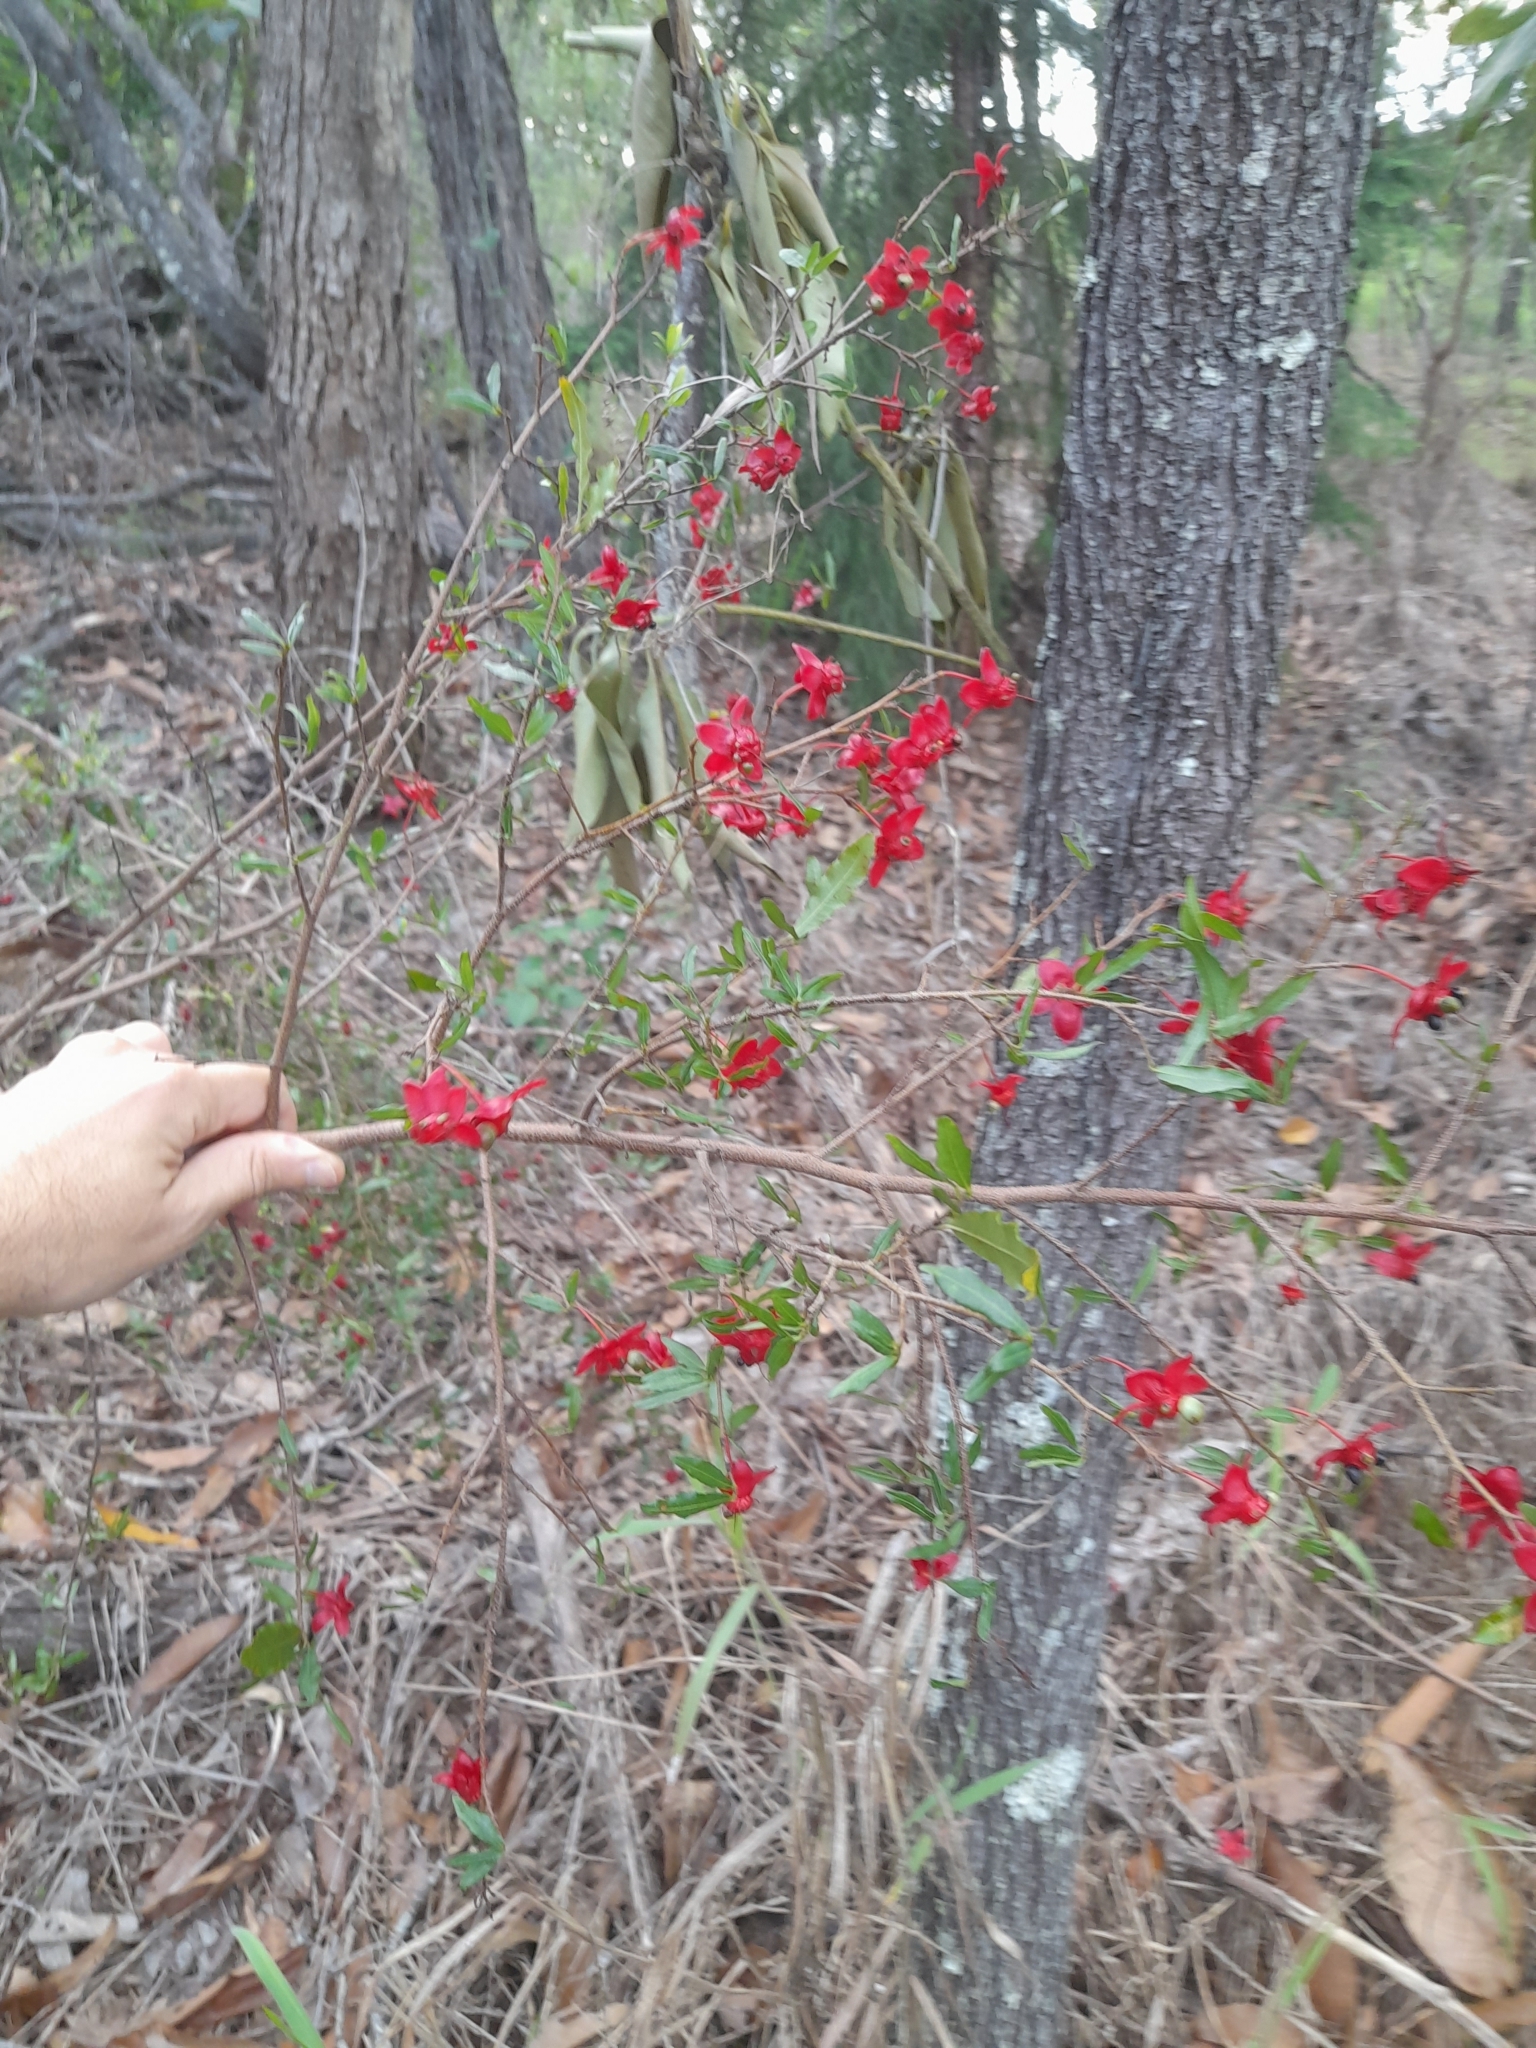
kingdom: Plantae
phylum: Tracheophyta
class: Magnoliopsida
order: Malpighiales
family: Ochnaceae
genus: Ochna
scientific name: Ochna serrulata
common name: Mickey mouse plant
